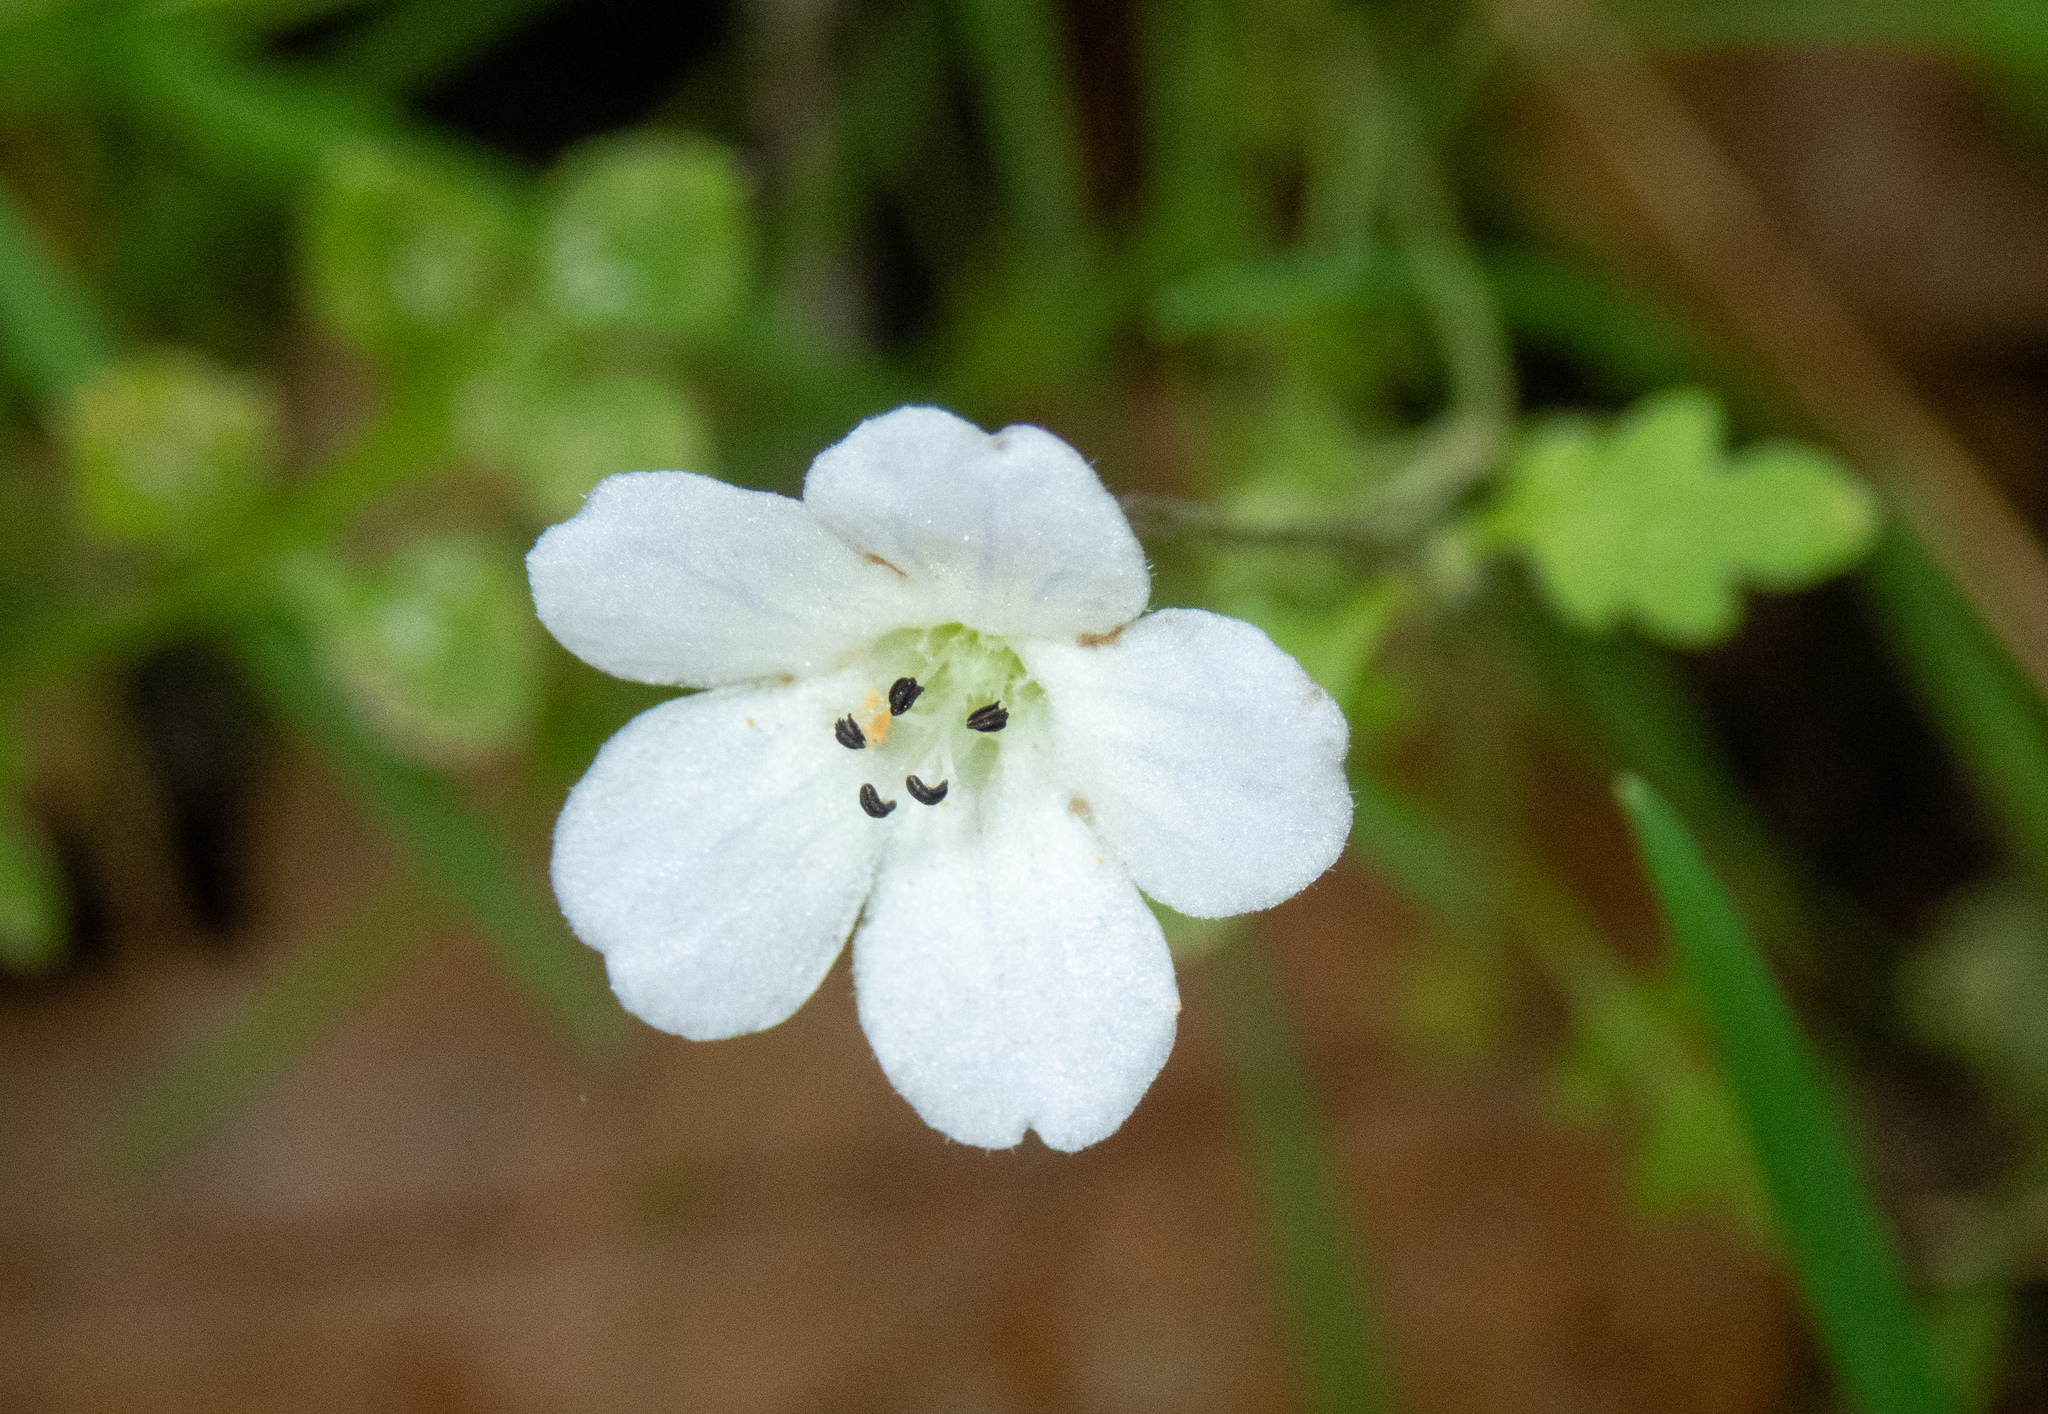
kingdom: Plantae
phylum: Tracheophyta
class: Magnoliopsida
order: Boraginales
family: Hydrophyllaceae
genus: Nemophila
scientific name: Nemophila heterophylla
